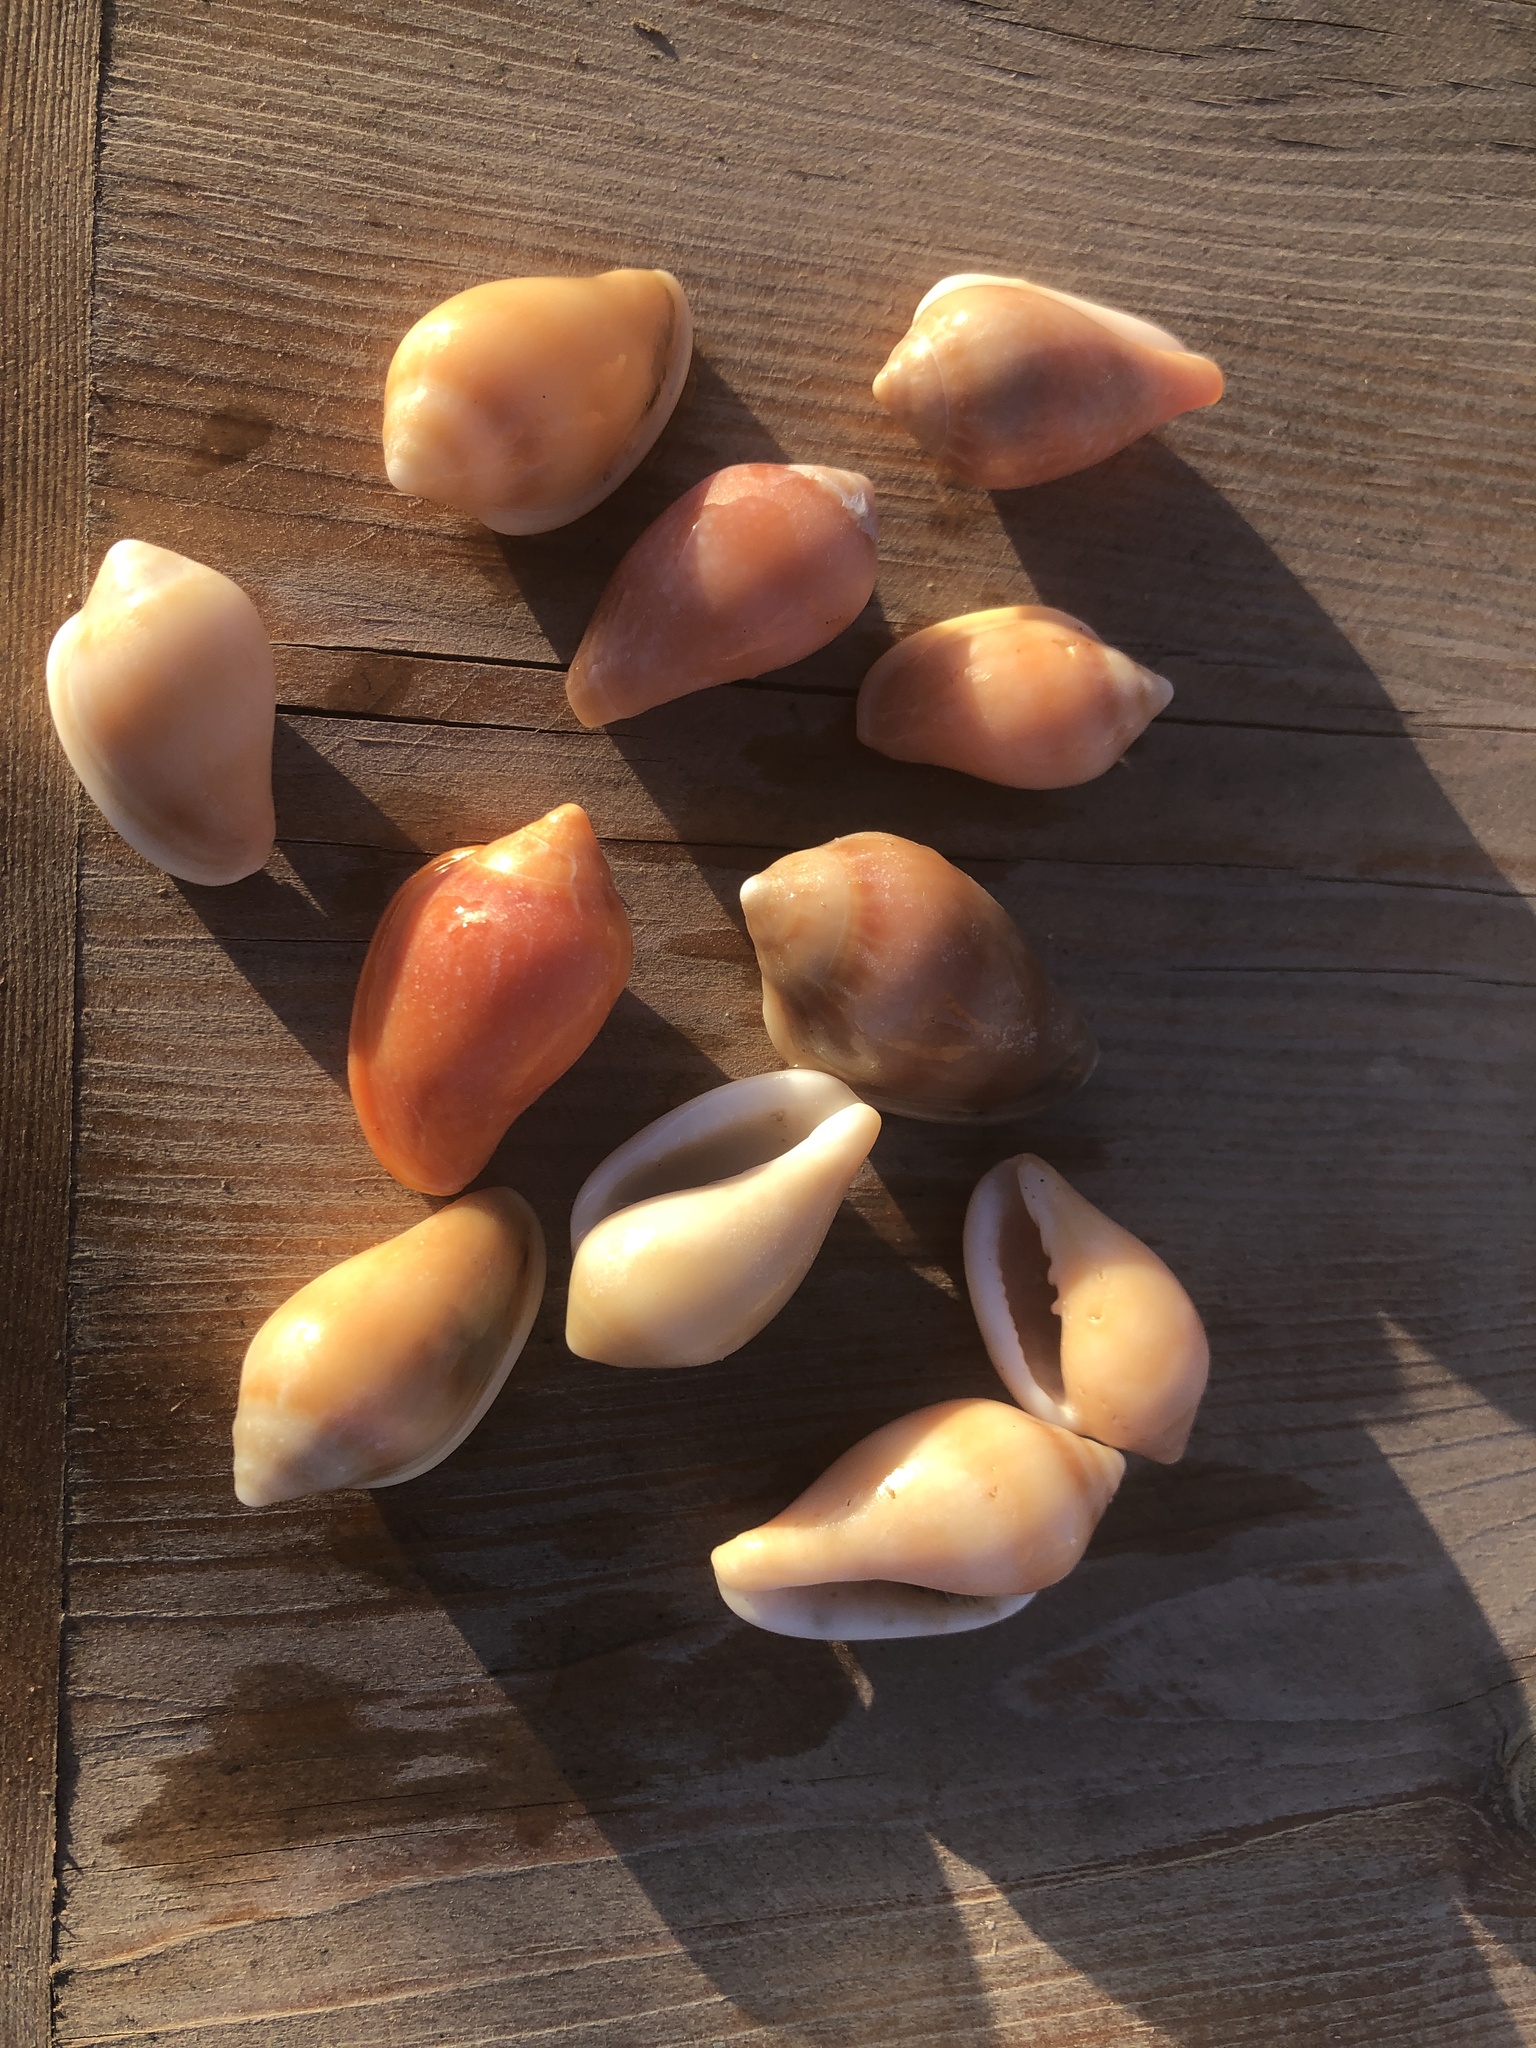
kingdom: Animalia
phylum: Mollusca
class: Gastropoda
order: Neogastropoda
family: Marginellidae
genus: Marginella
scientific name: Marginella glabella
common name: Shiny marginella
